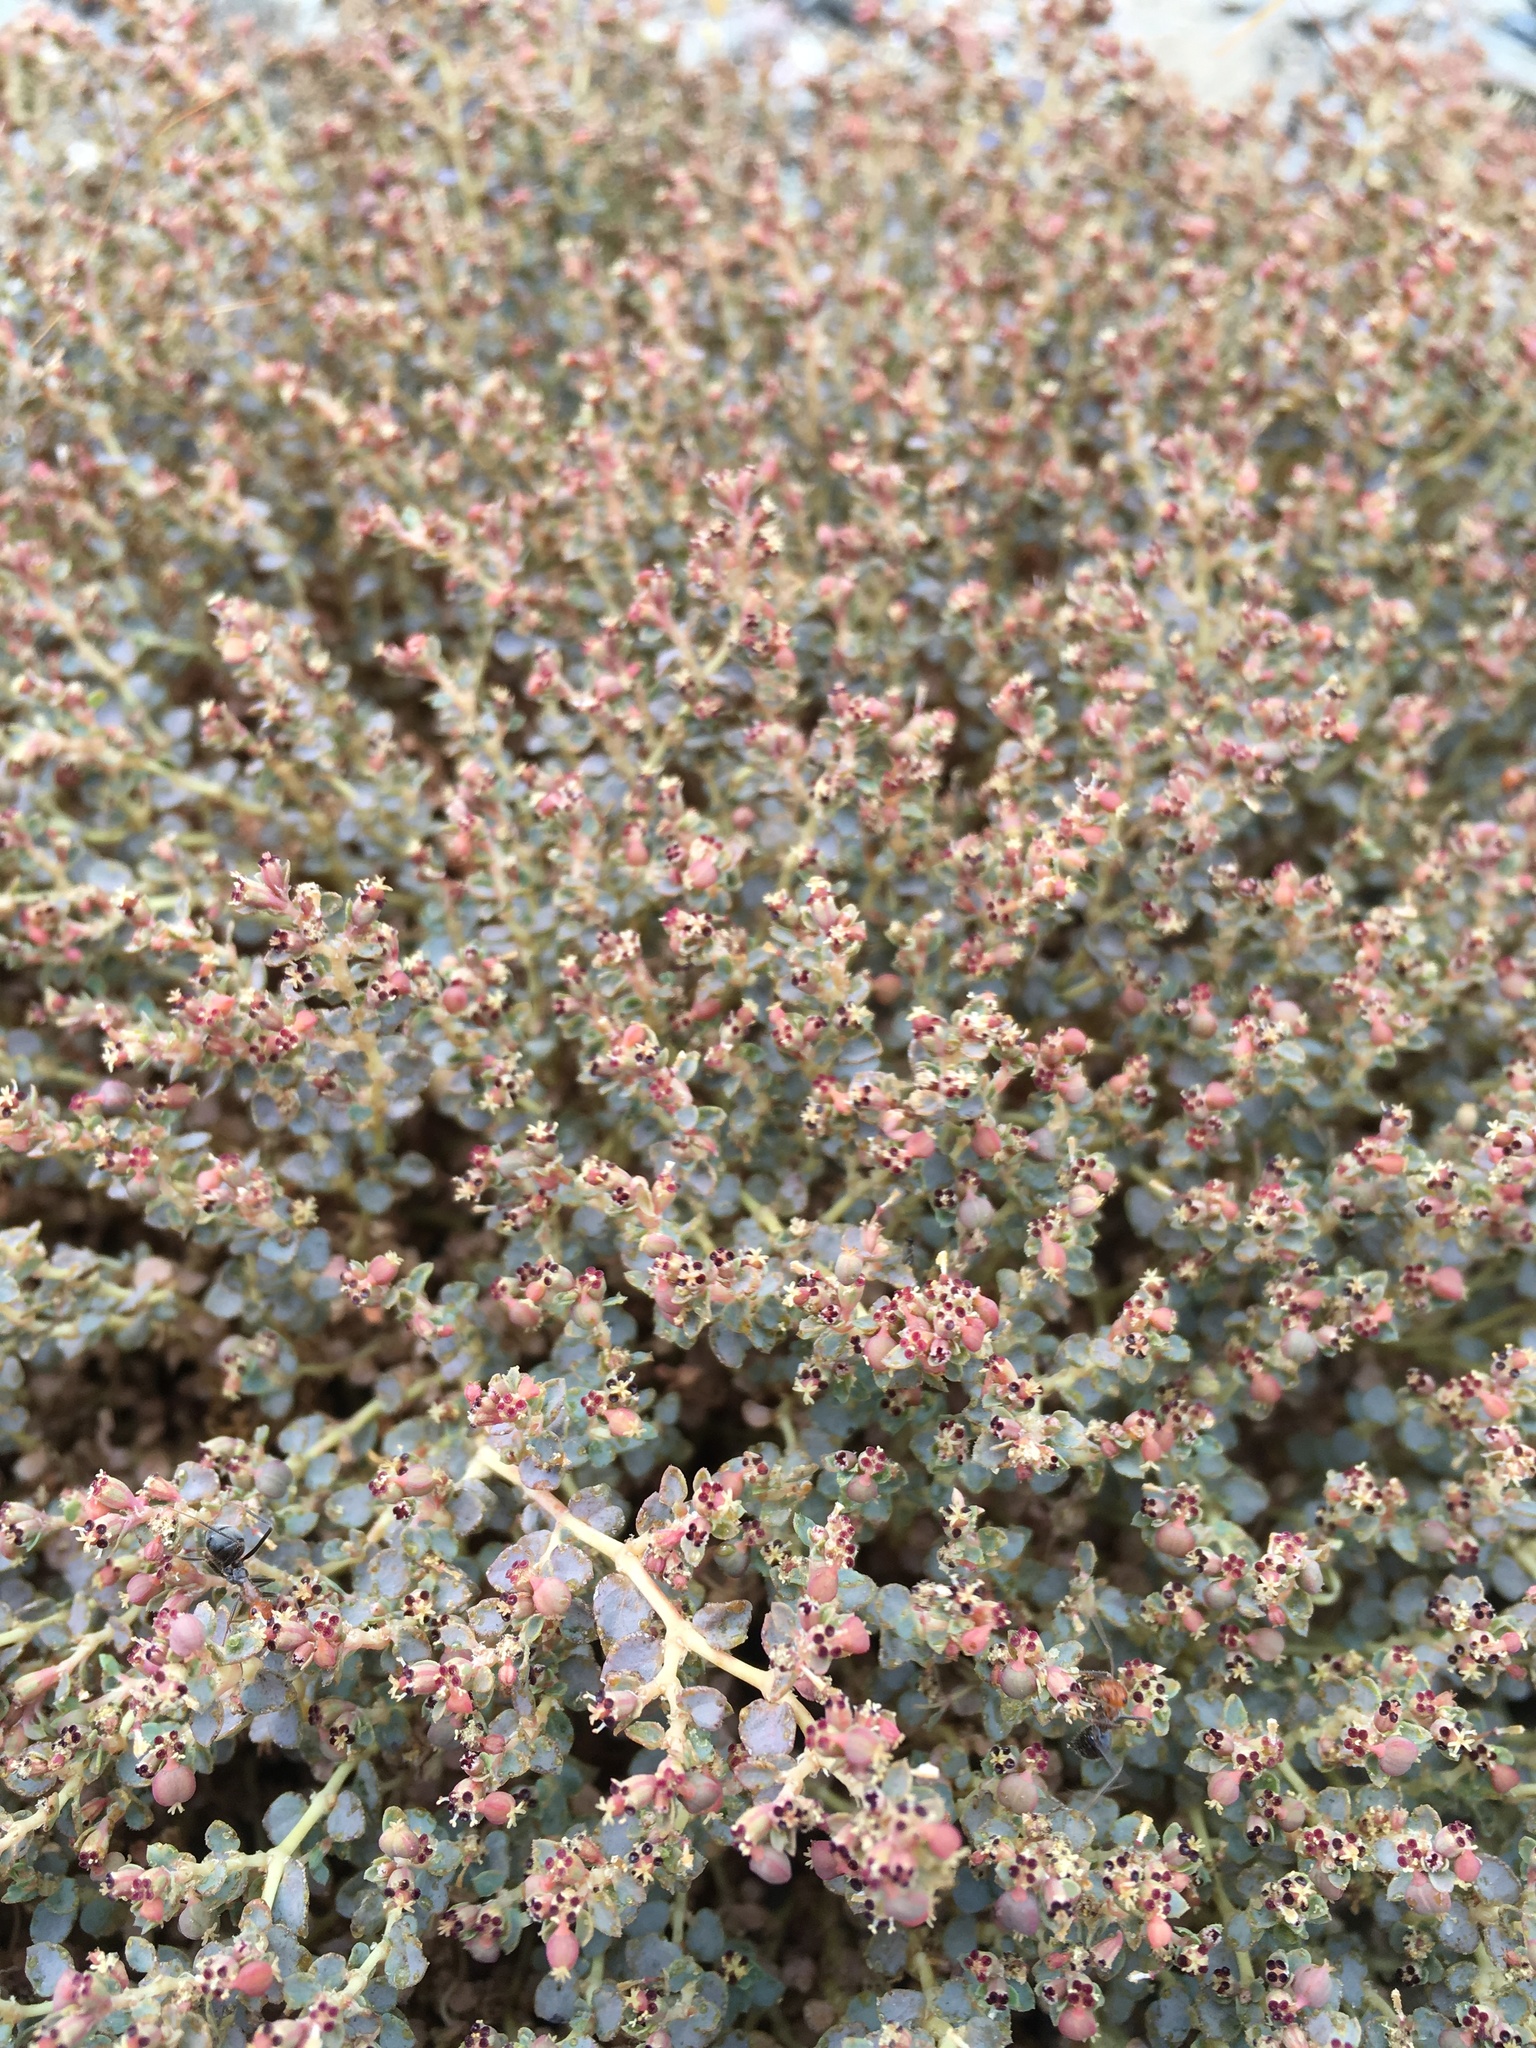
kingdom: Plantae
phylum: Tracheophyta
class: Magnoliopsida
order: Malpighiales
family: Euphorbiaceae
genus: Euphorbia
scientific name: Euphorbia parishii
